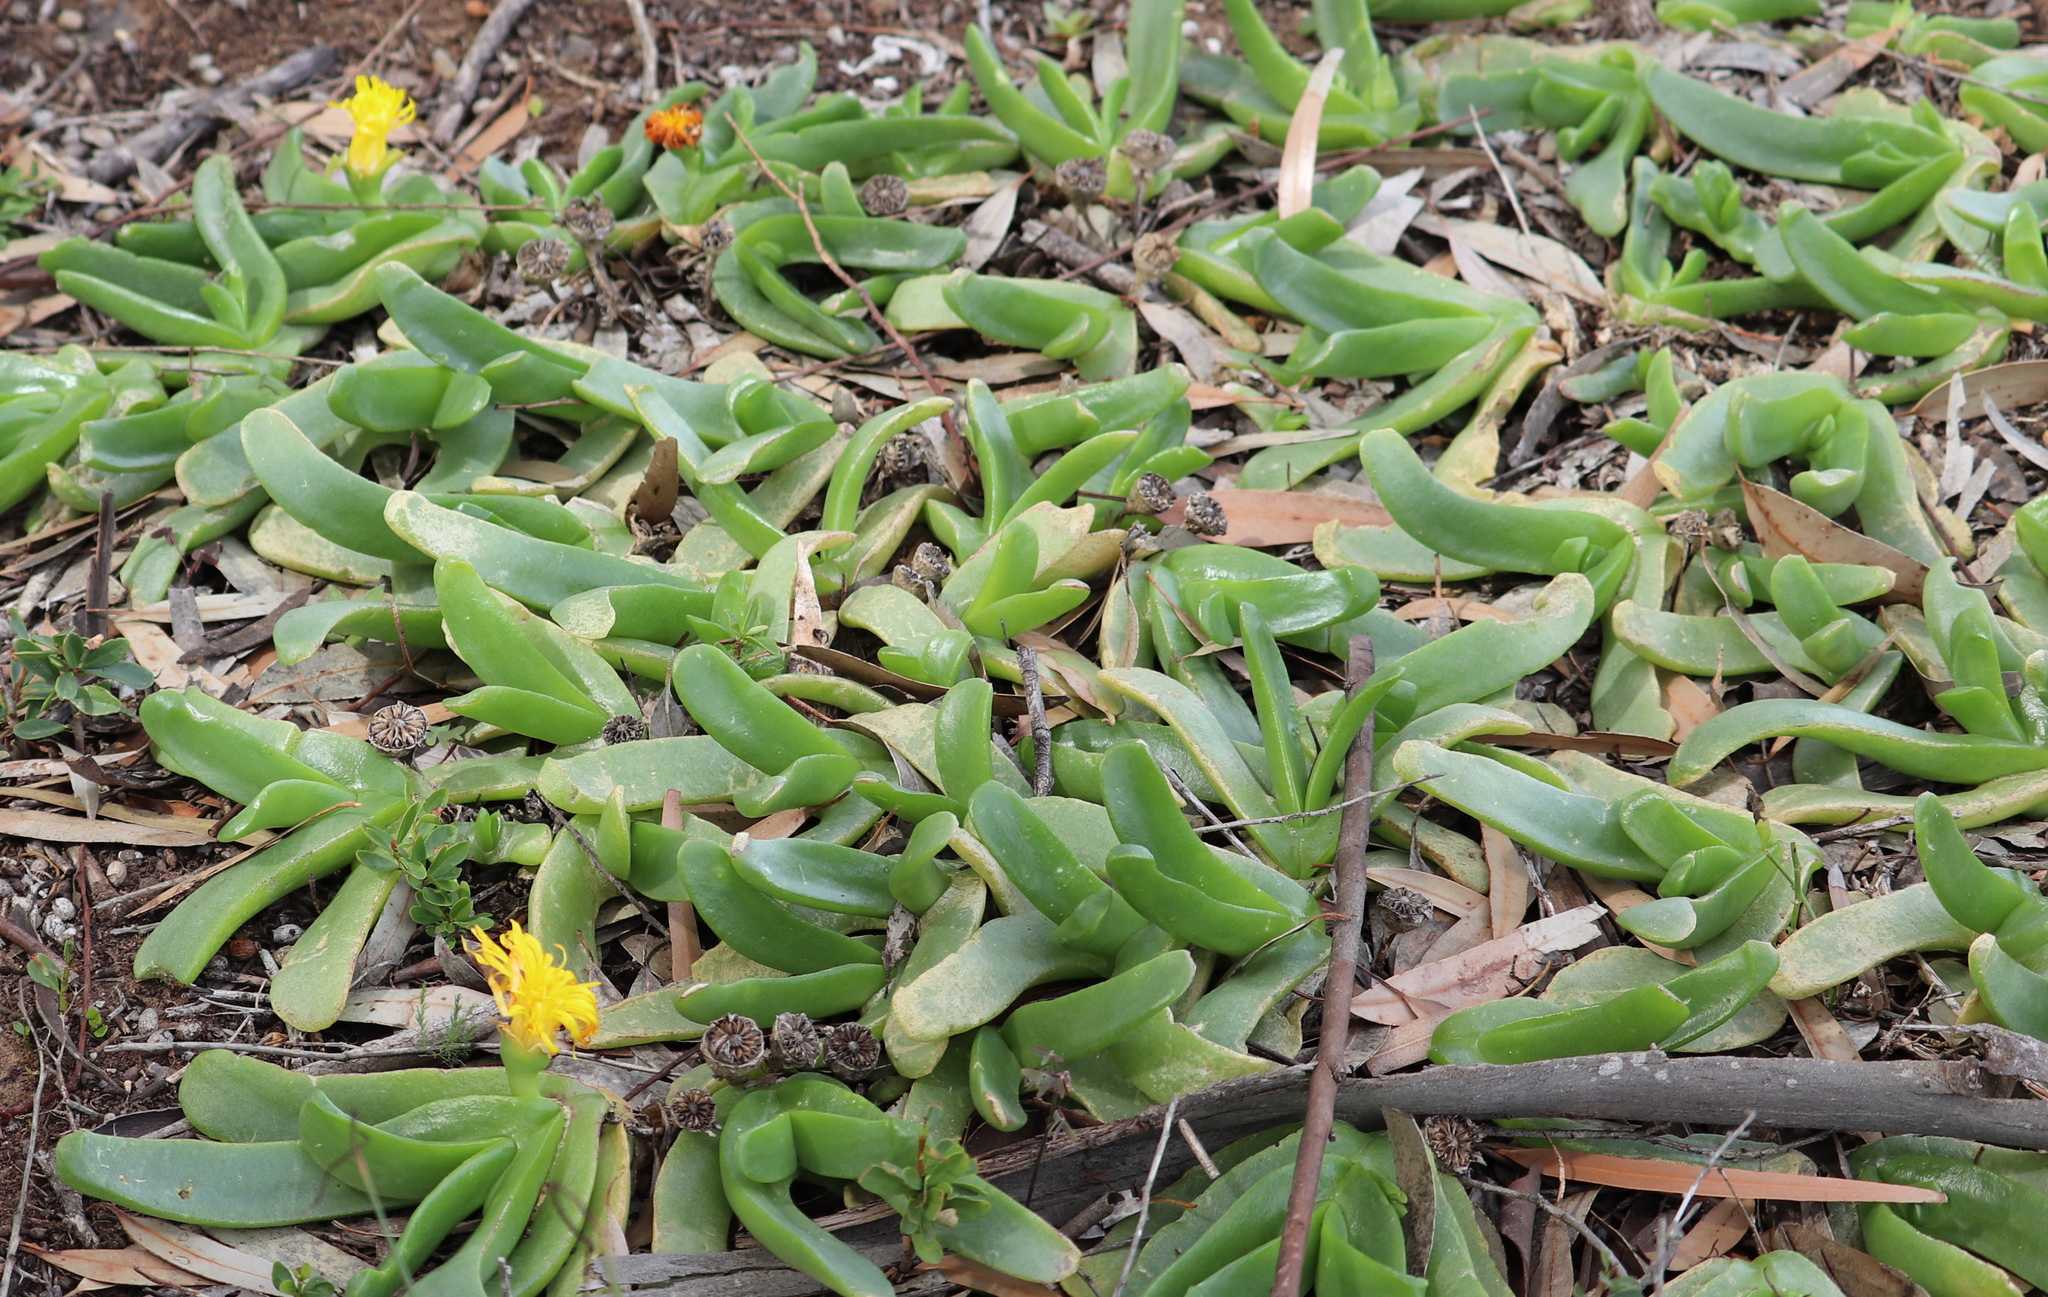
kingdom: Plantae
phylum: Tracheophyta
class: Magnoliopsida
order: Caryophyllales
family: Aizoaceae
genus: Glottiphyllum
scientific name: Glottiphyllum longum
